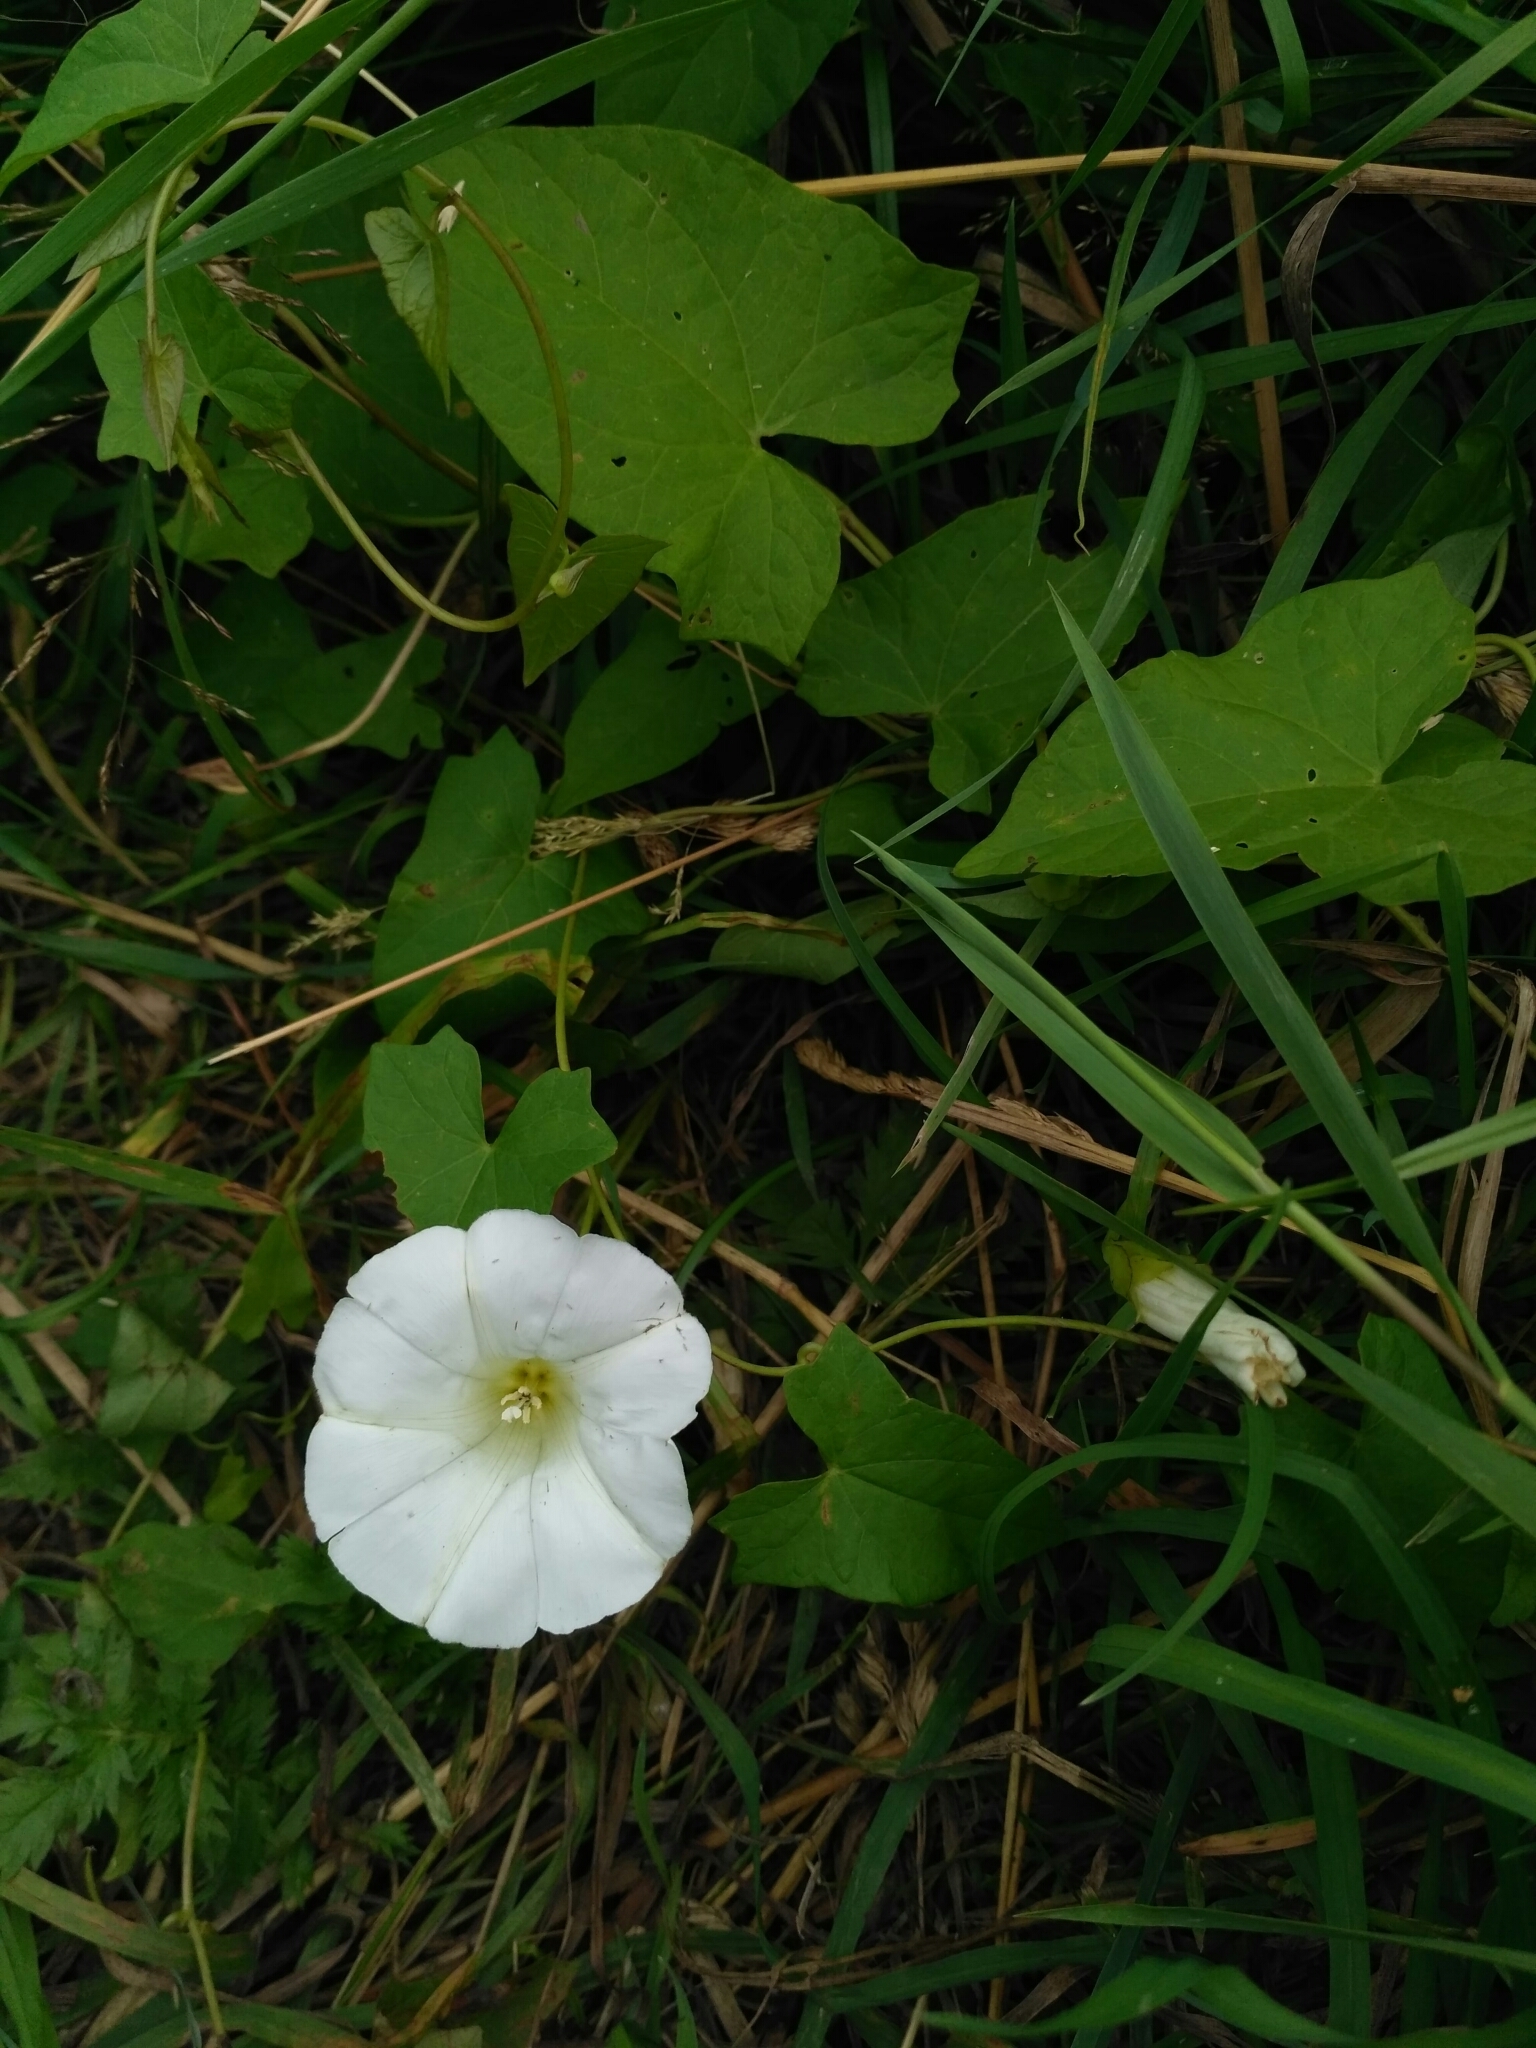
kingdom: Plantae
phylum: Tracheophyta
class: Magnoliopsida
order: Solanales
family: Convolvulaceae
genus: Calystegia
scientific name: Calystegia sepium
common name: Hedge bindweed
